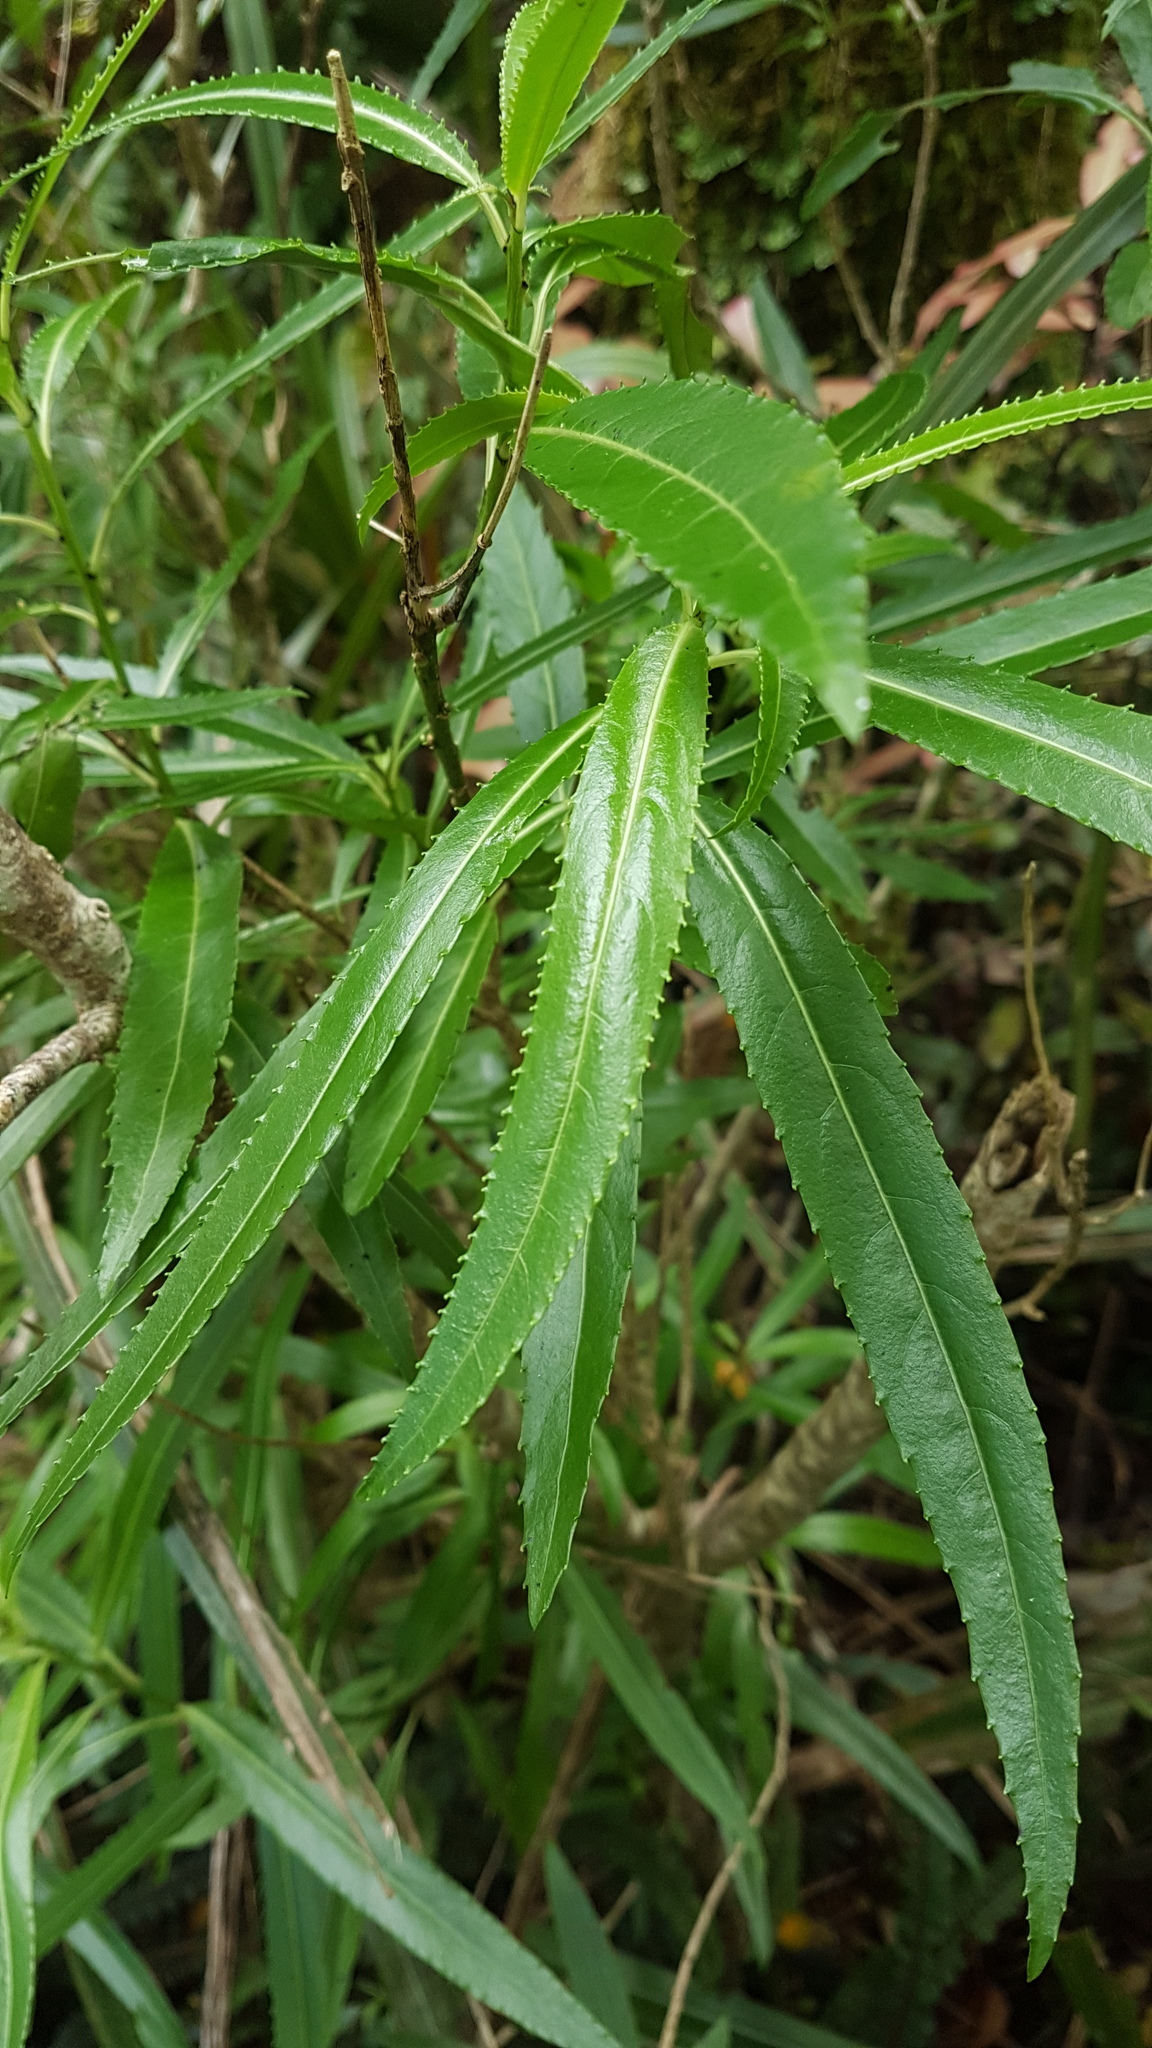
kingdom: Plantae
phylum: Tracheophyta
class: Magnoliopsida
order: Malpighiales
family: Violaceae
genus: Melicytus
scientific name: Melicytus lanceolatus
